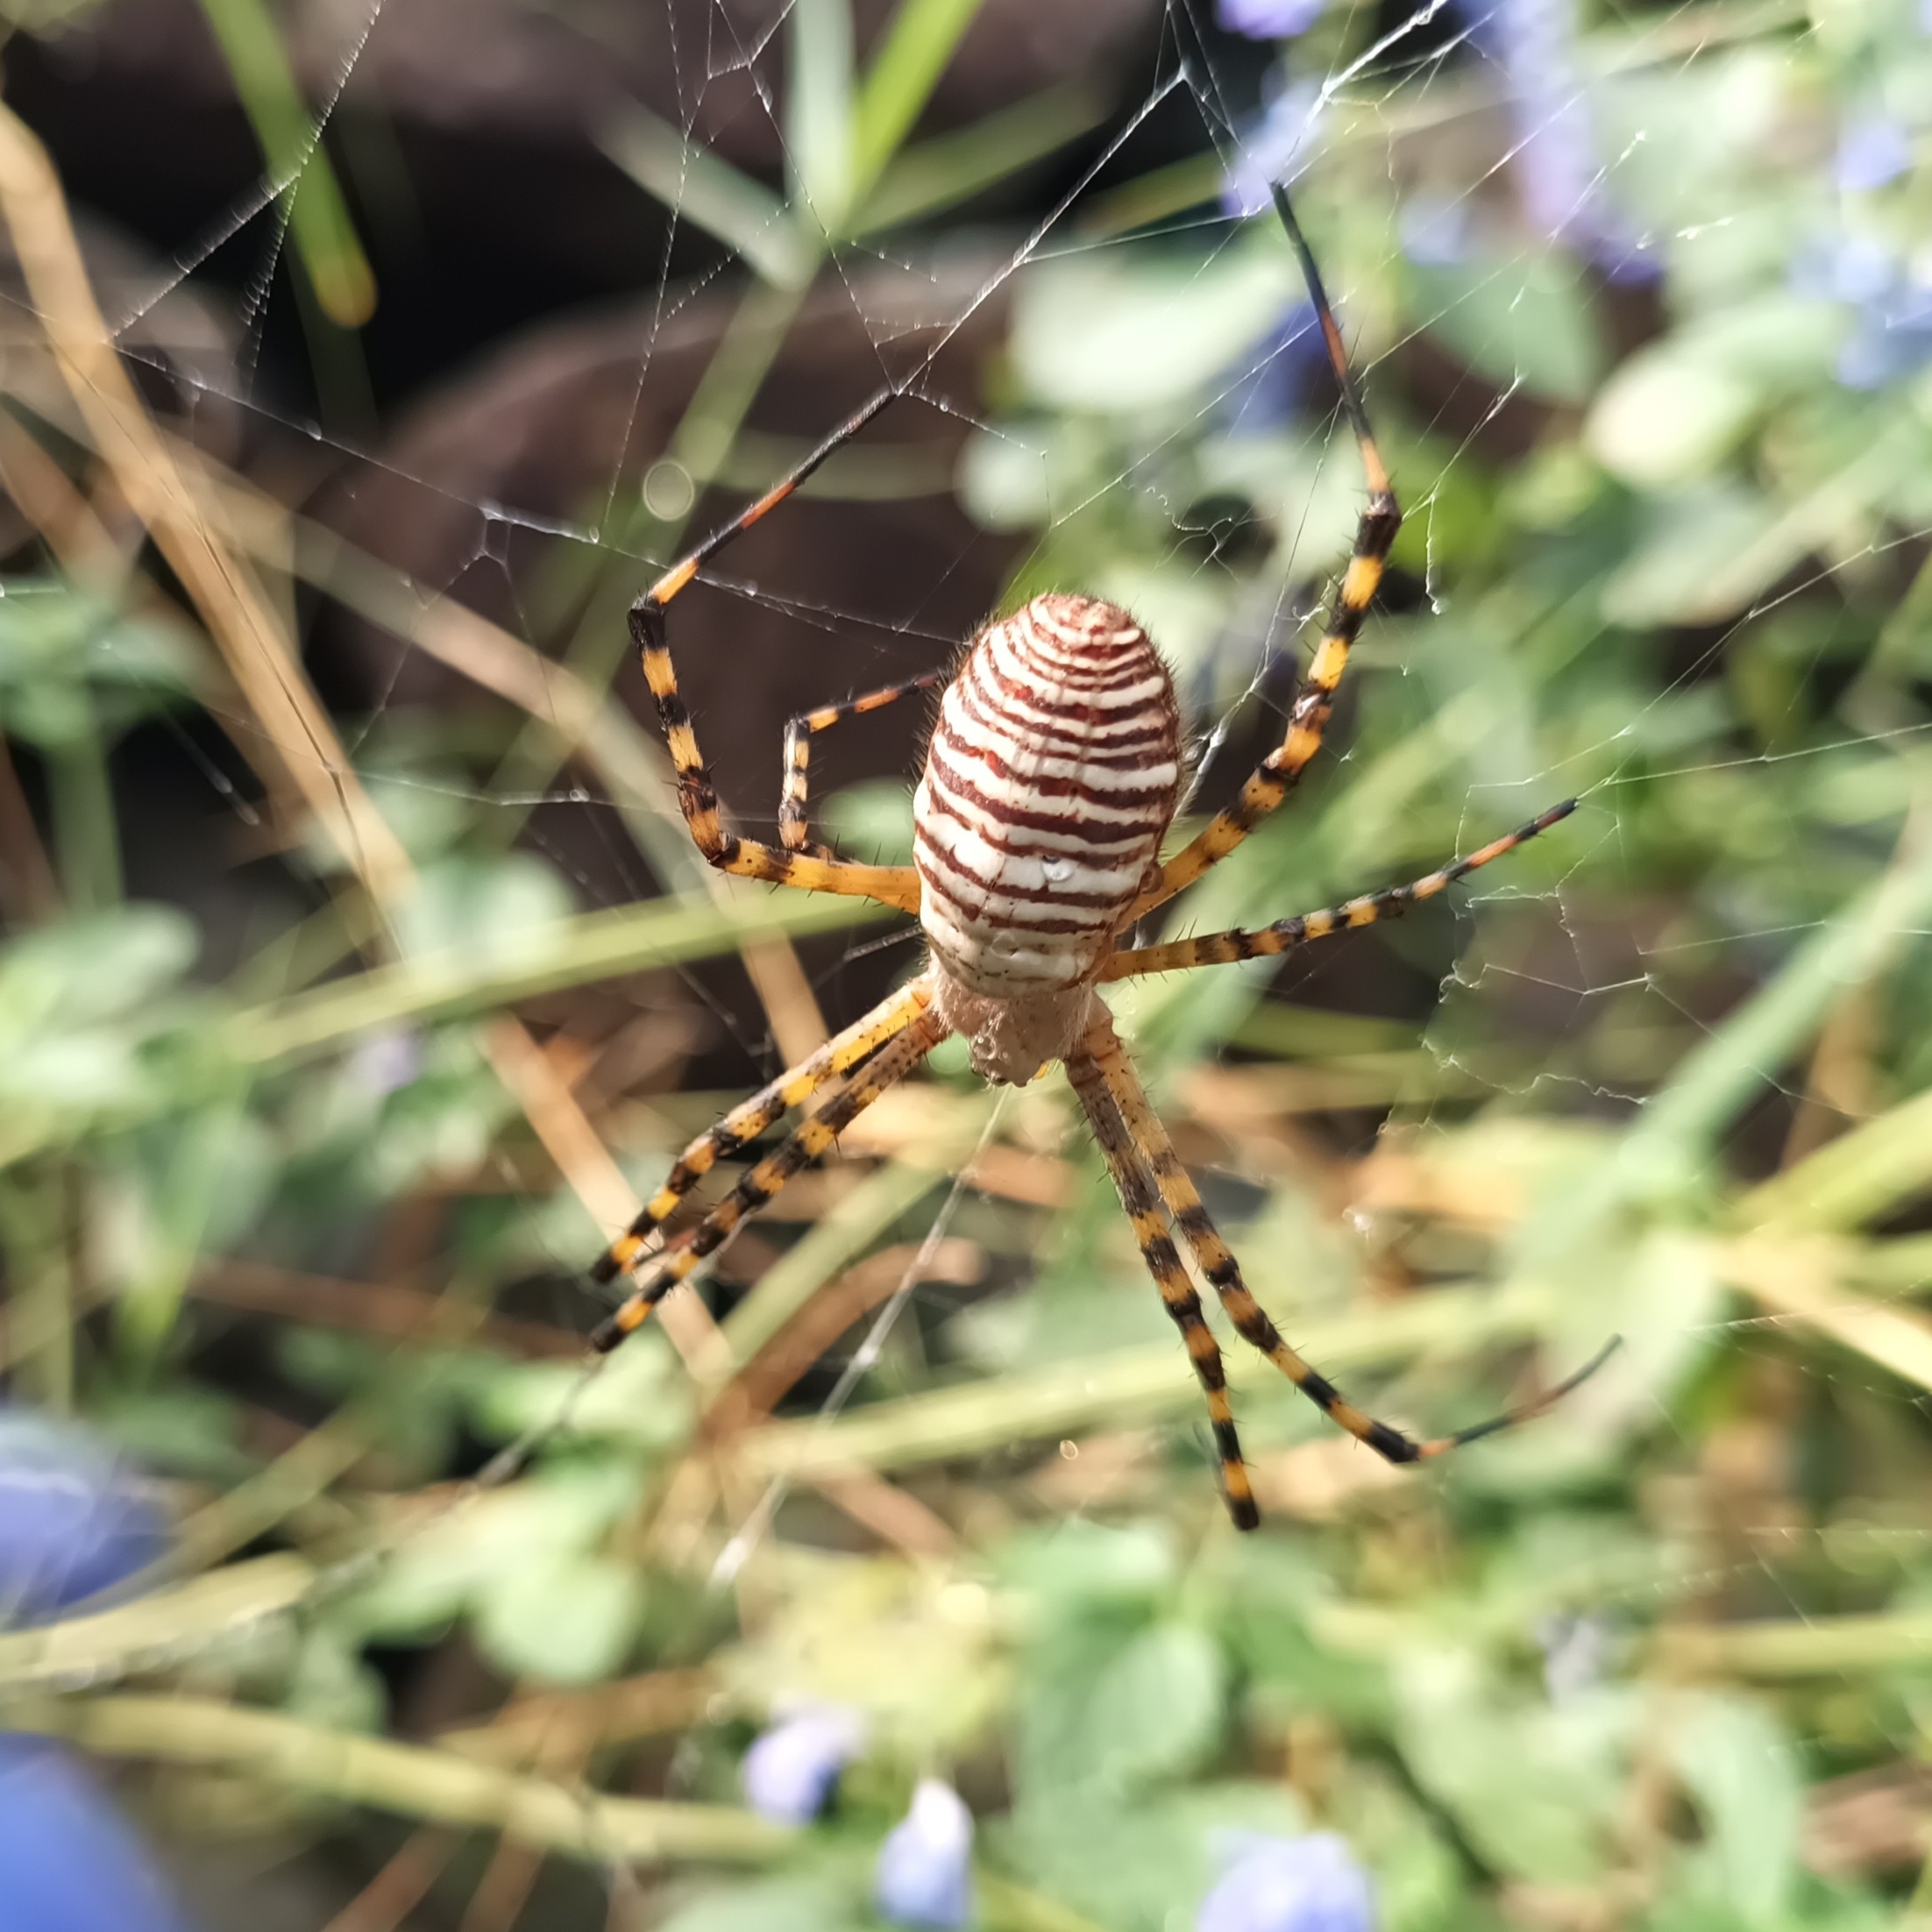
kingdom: Animalia
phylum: Arthropoda
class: Arachnida
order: Araneae
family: Araneidae
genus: Argiope
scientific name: Argiope trifasciata
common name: Banded garden spider
